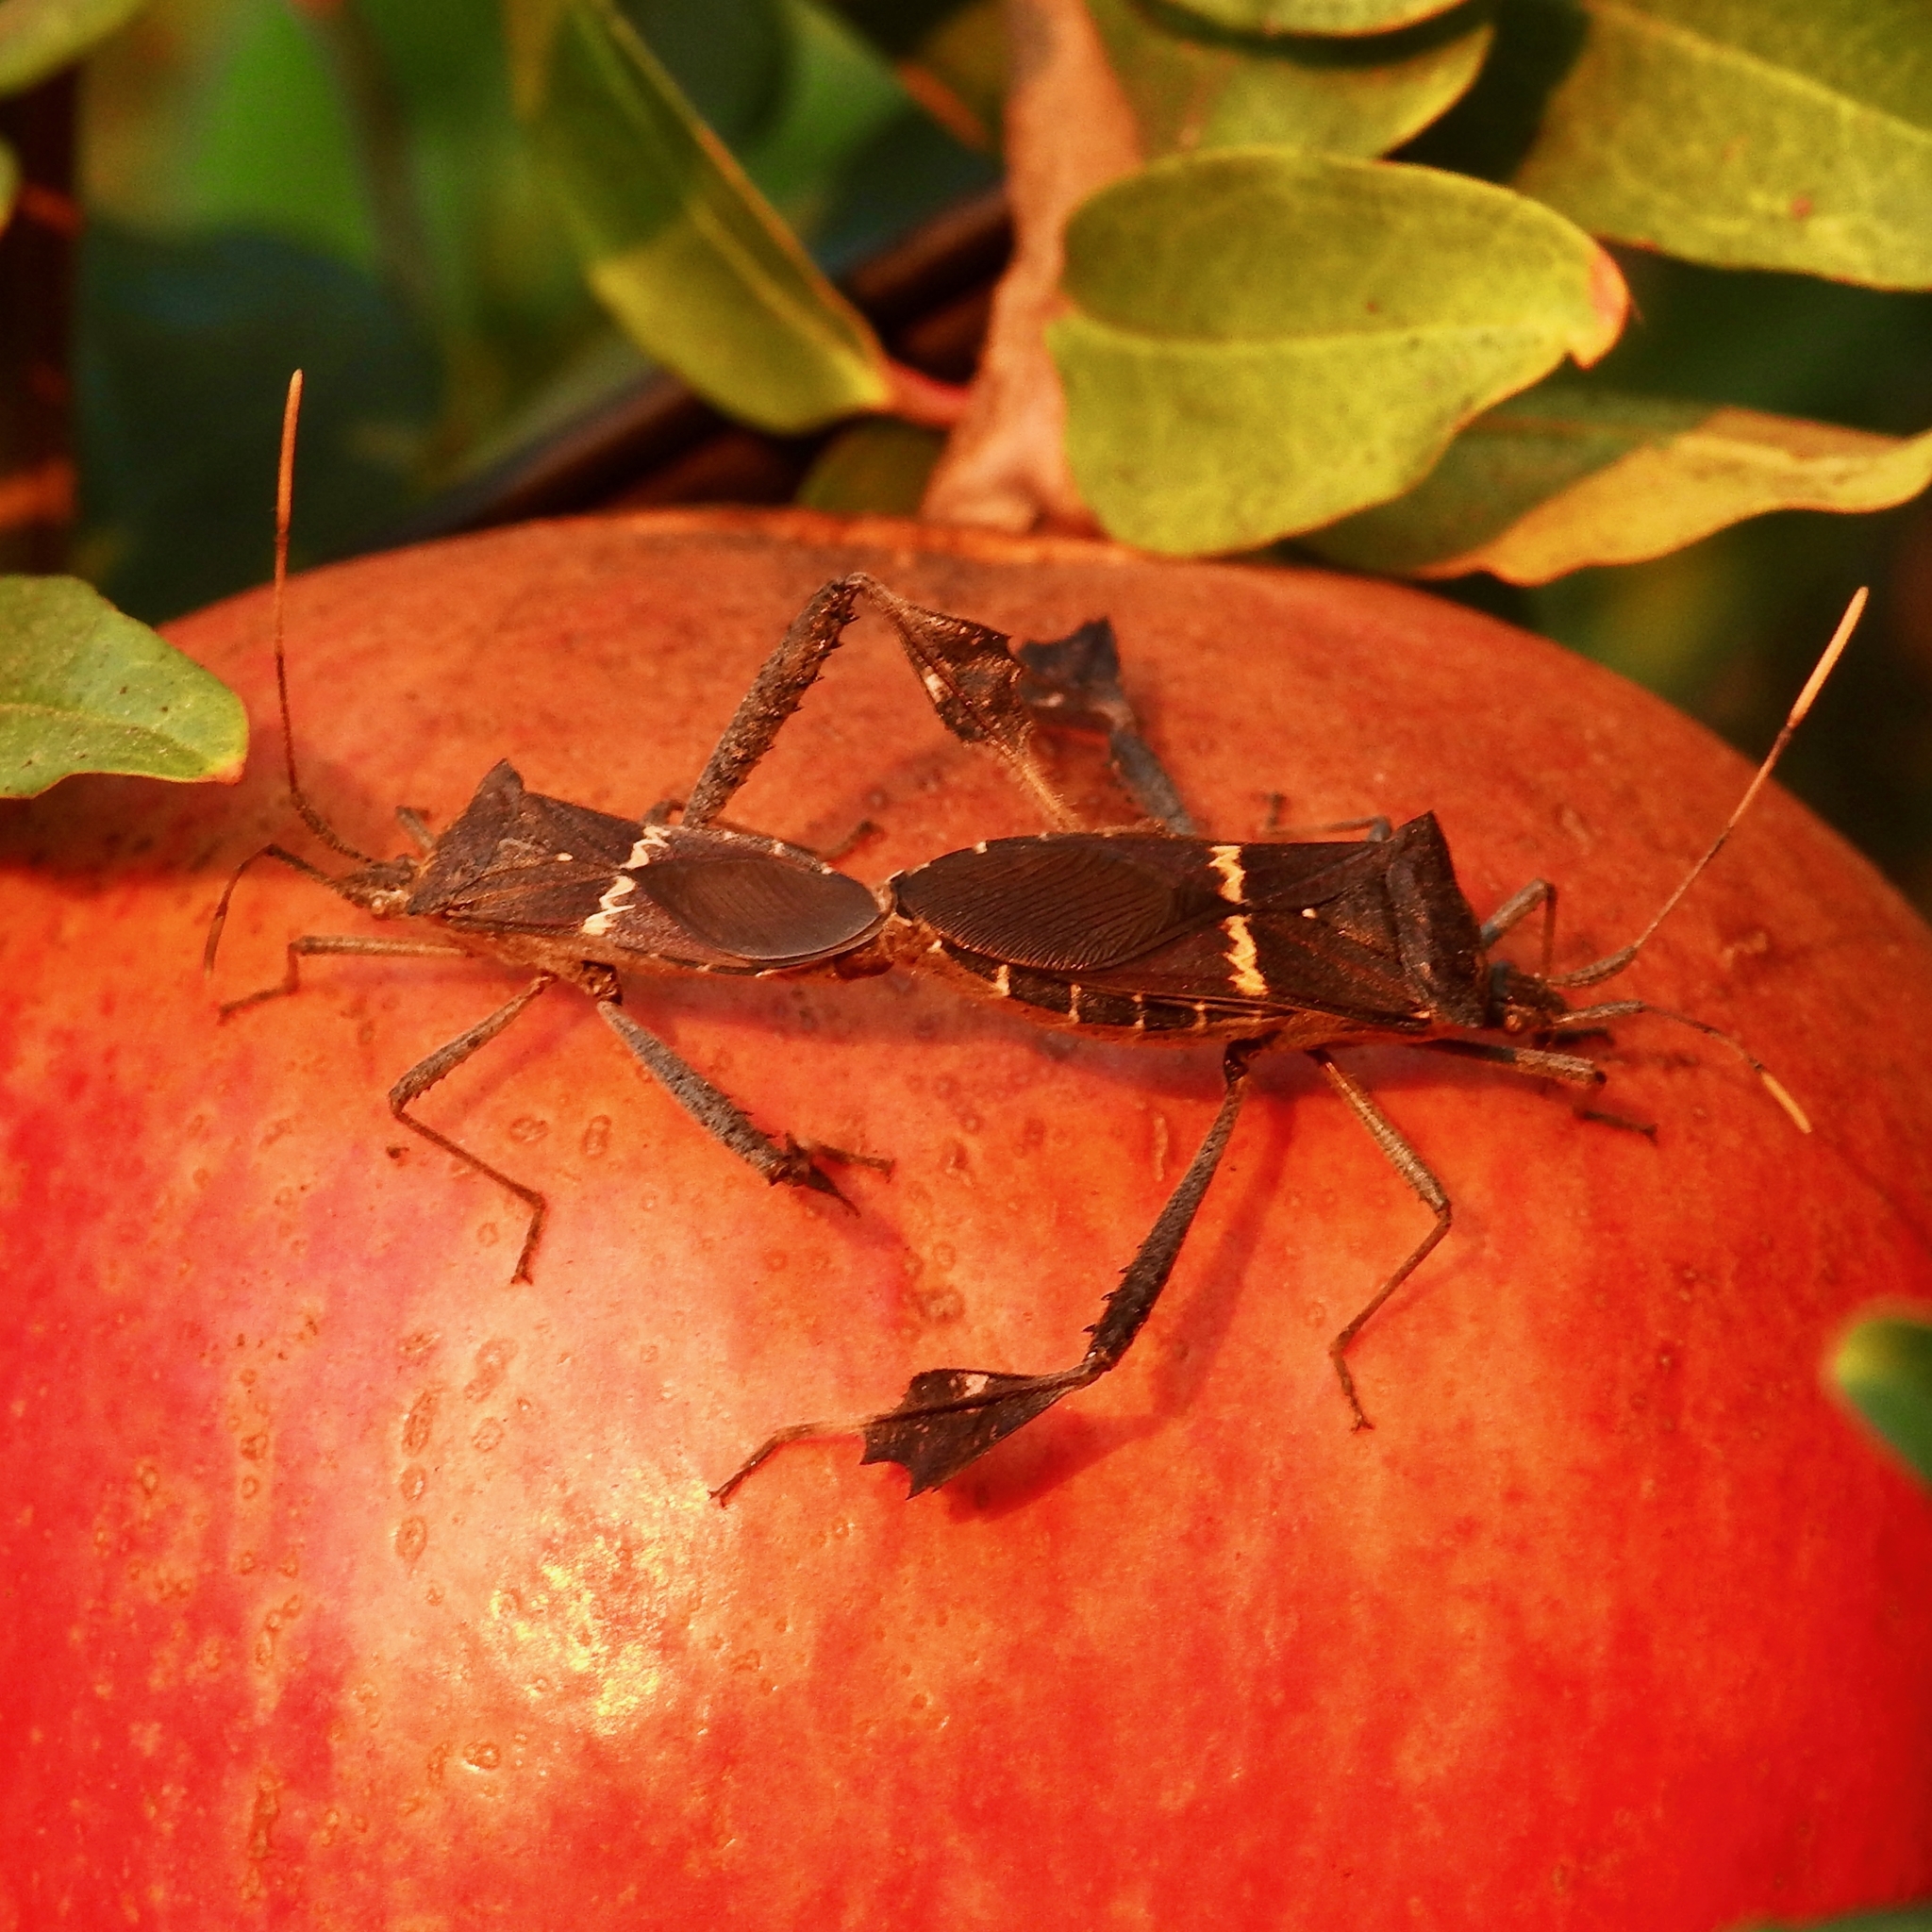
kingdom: Animalia
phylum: Arthropoda
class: Insecta
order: Hemiptera
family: Coreidae
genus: Leptoglossus
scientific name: Leptoglossus zonatus
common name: Large-legged bug
